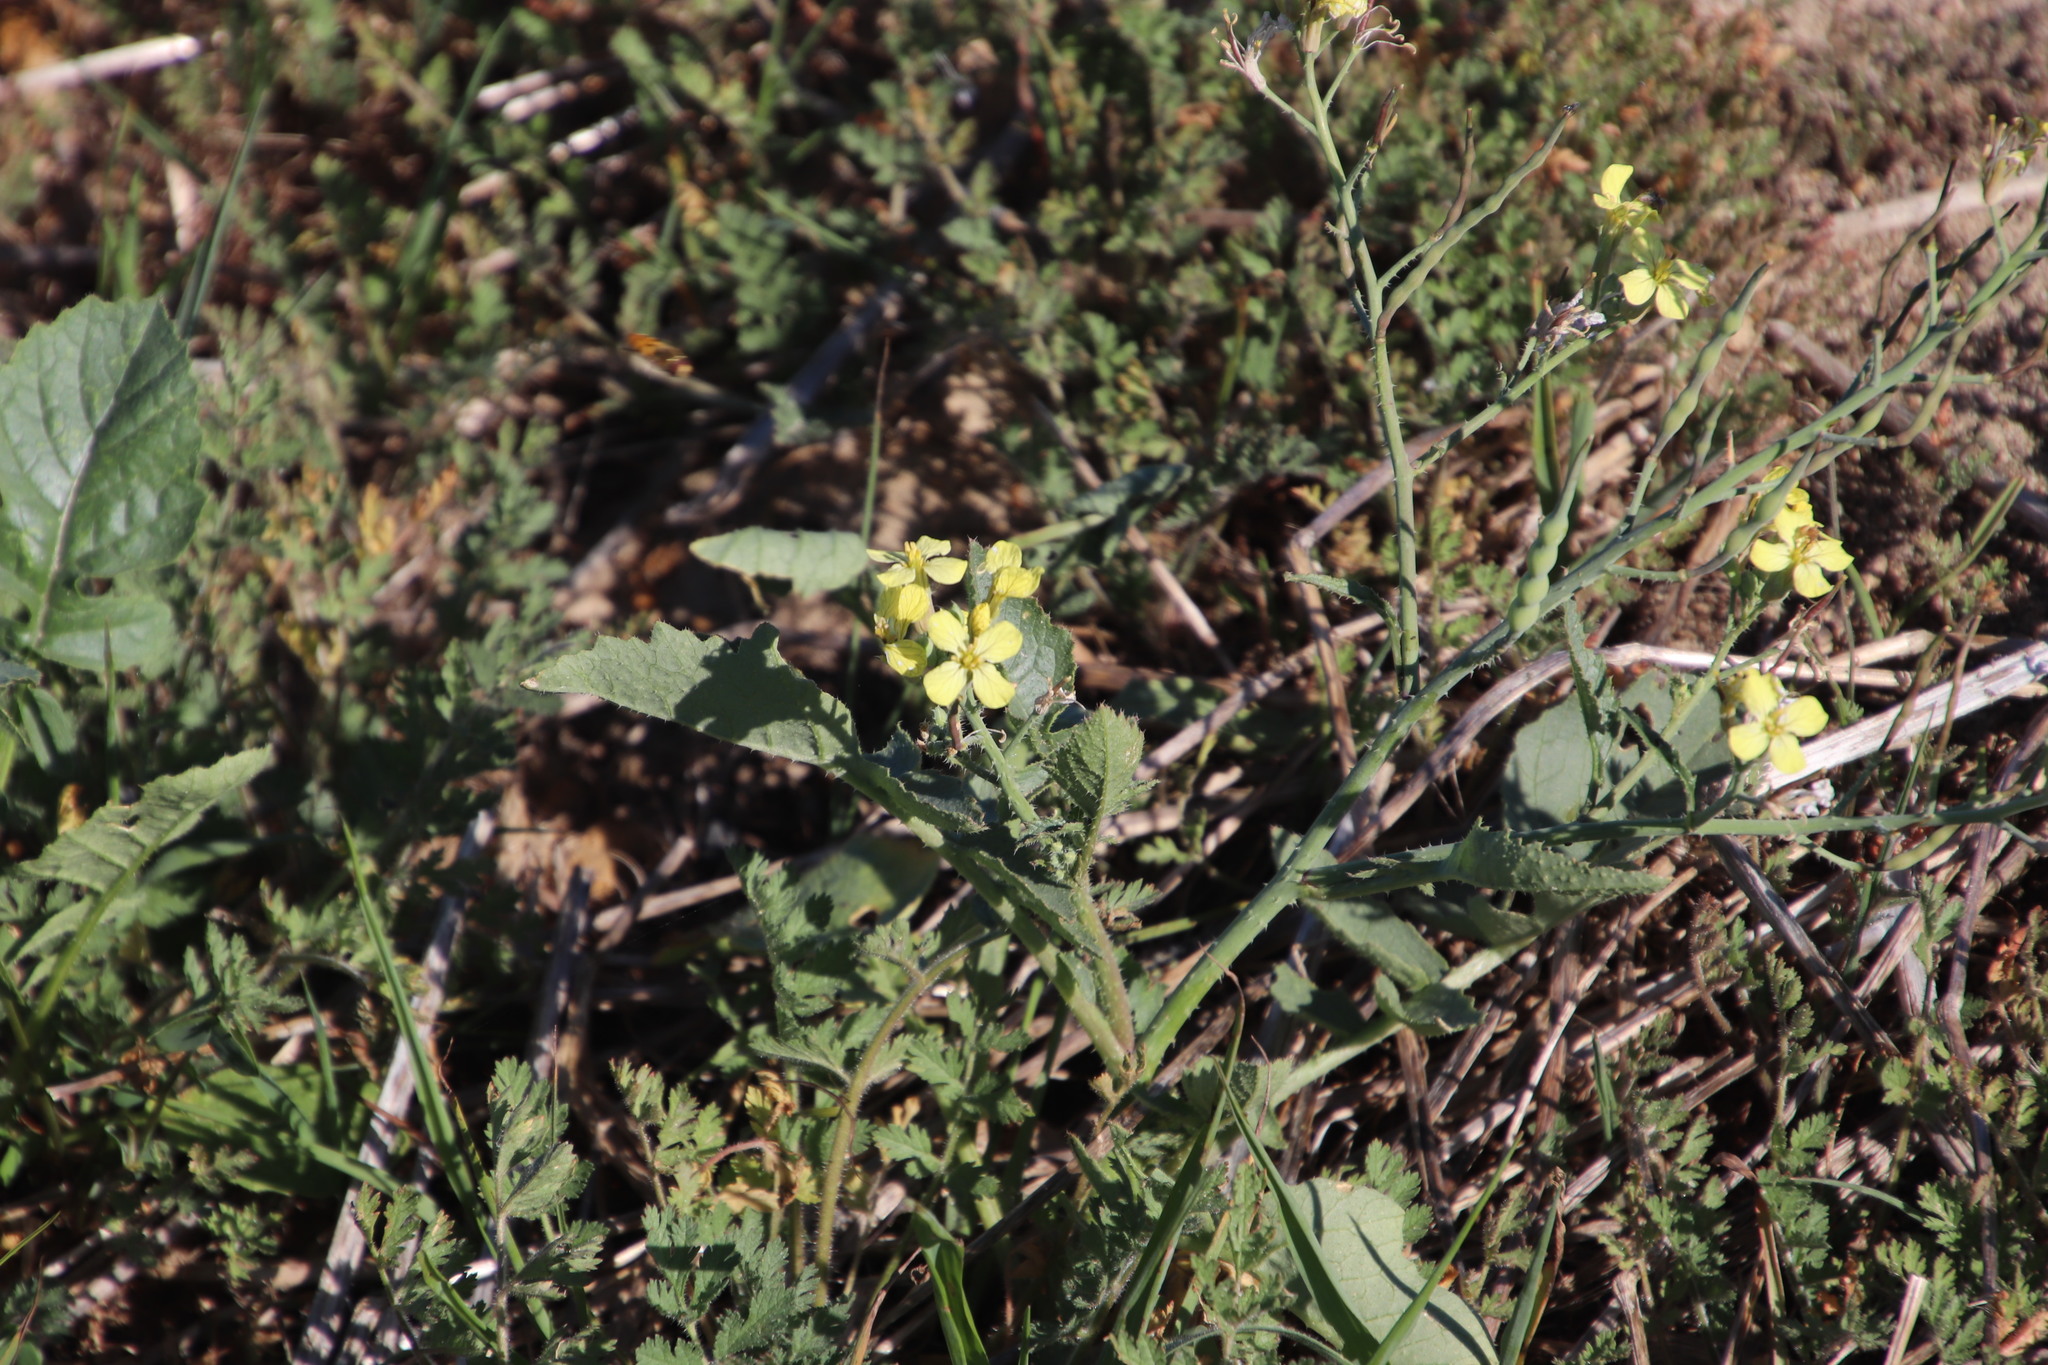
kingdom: Plantae
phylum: Tracheophyta
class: Magnoliopsida
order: Brassicales
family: Brassicaceae
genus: Raphanus
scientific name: Raphanus raphanistrum
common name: Wild radish
